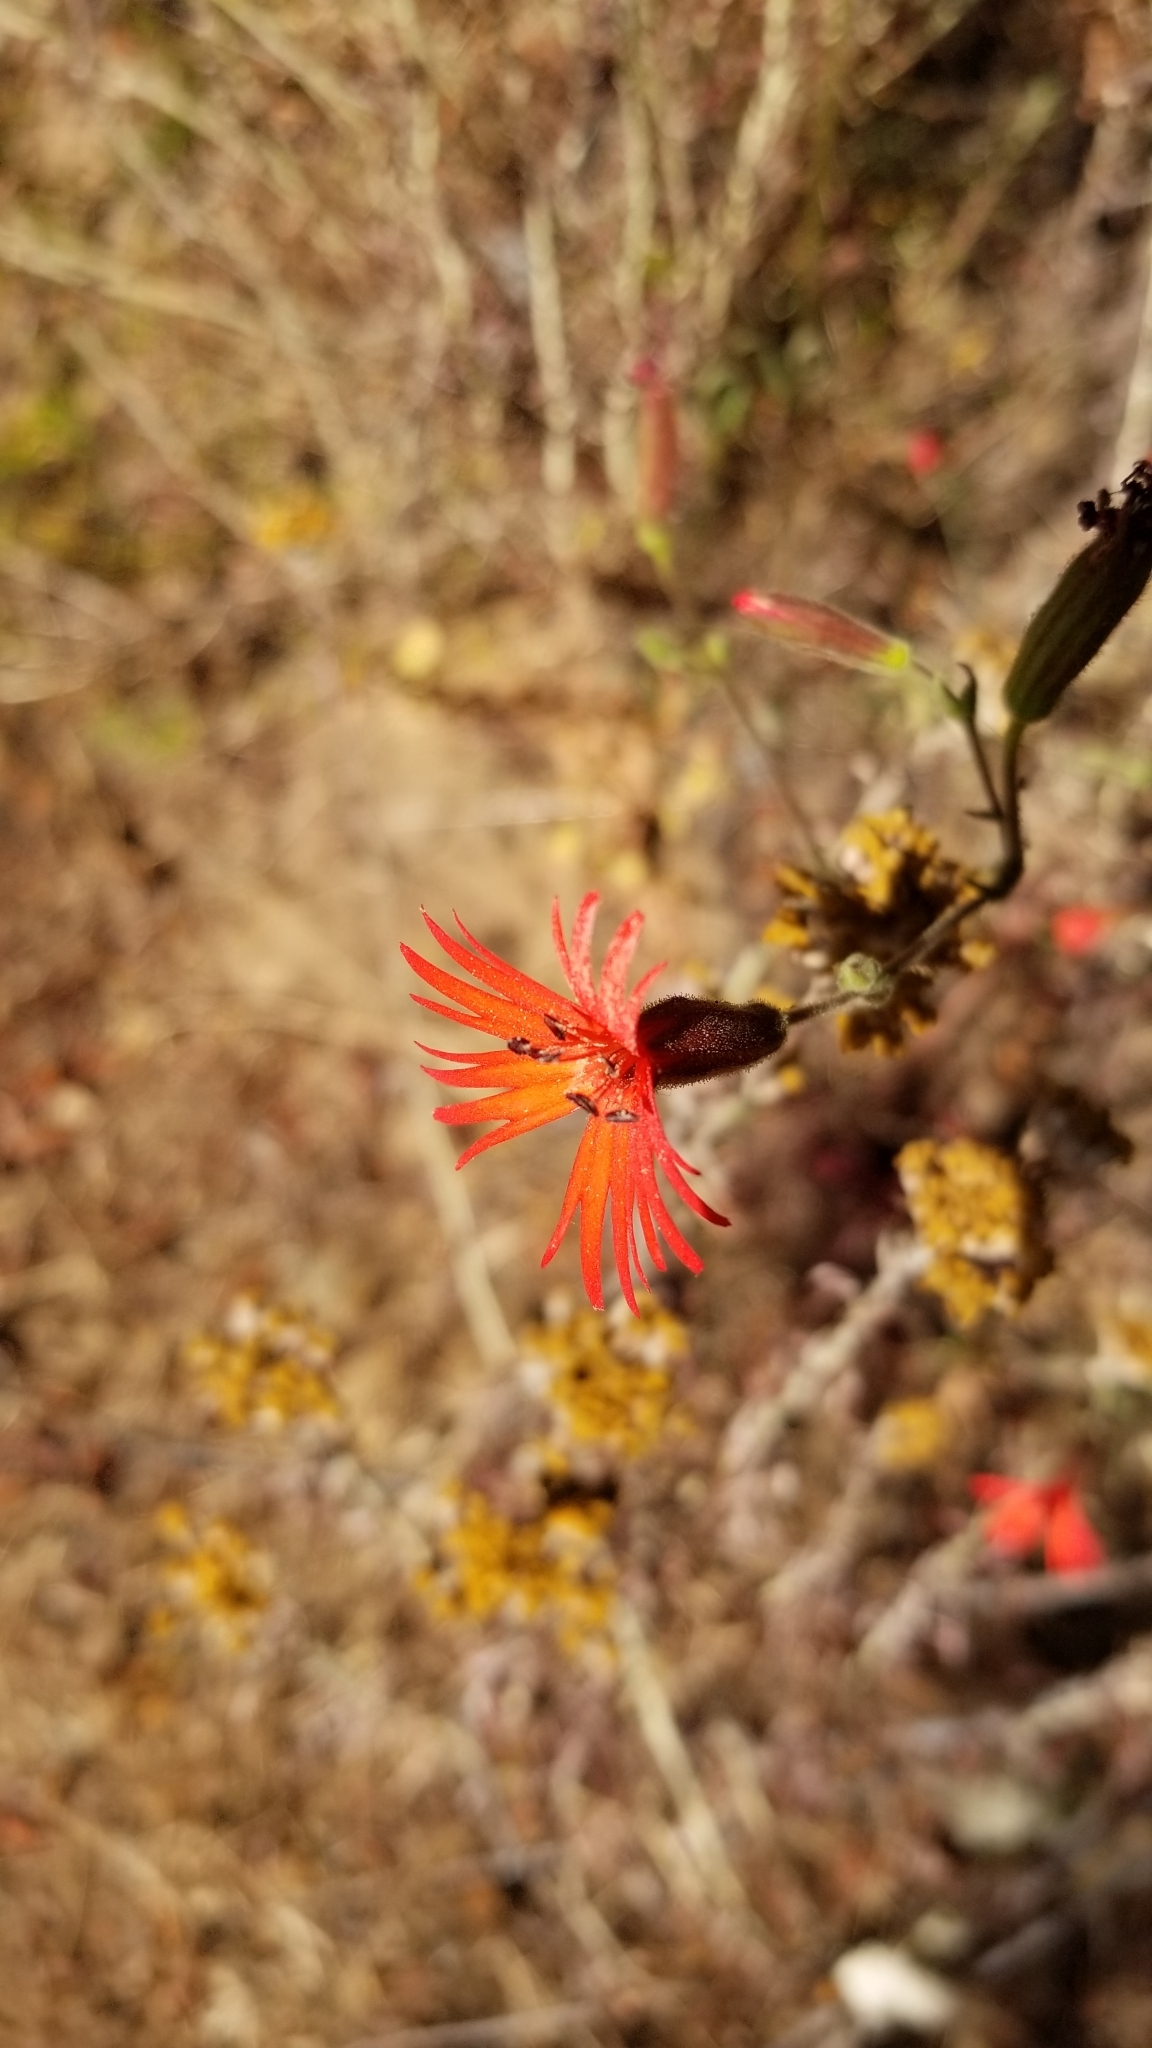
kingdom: Plantae
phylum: Tracheophyta
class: Magnoliopsida
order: Caryophyllales
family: Caryophyllaceae
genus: Silene
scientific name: Silene laciniata
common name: Indian-pink
